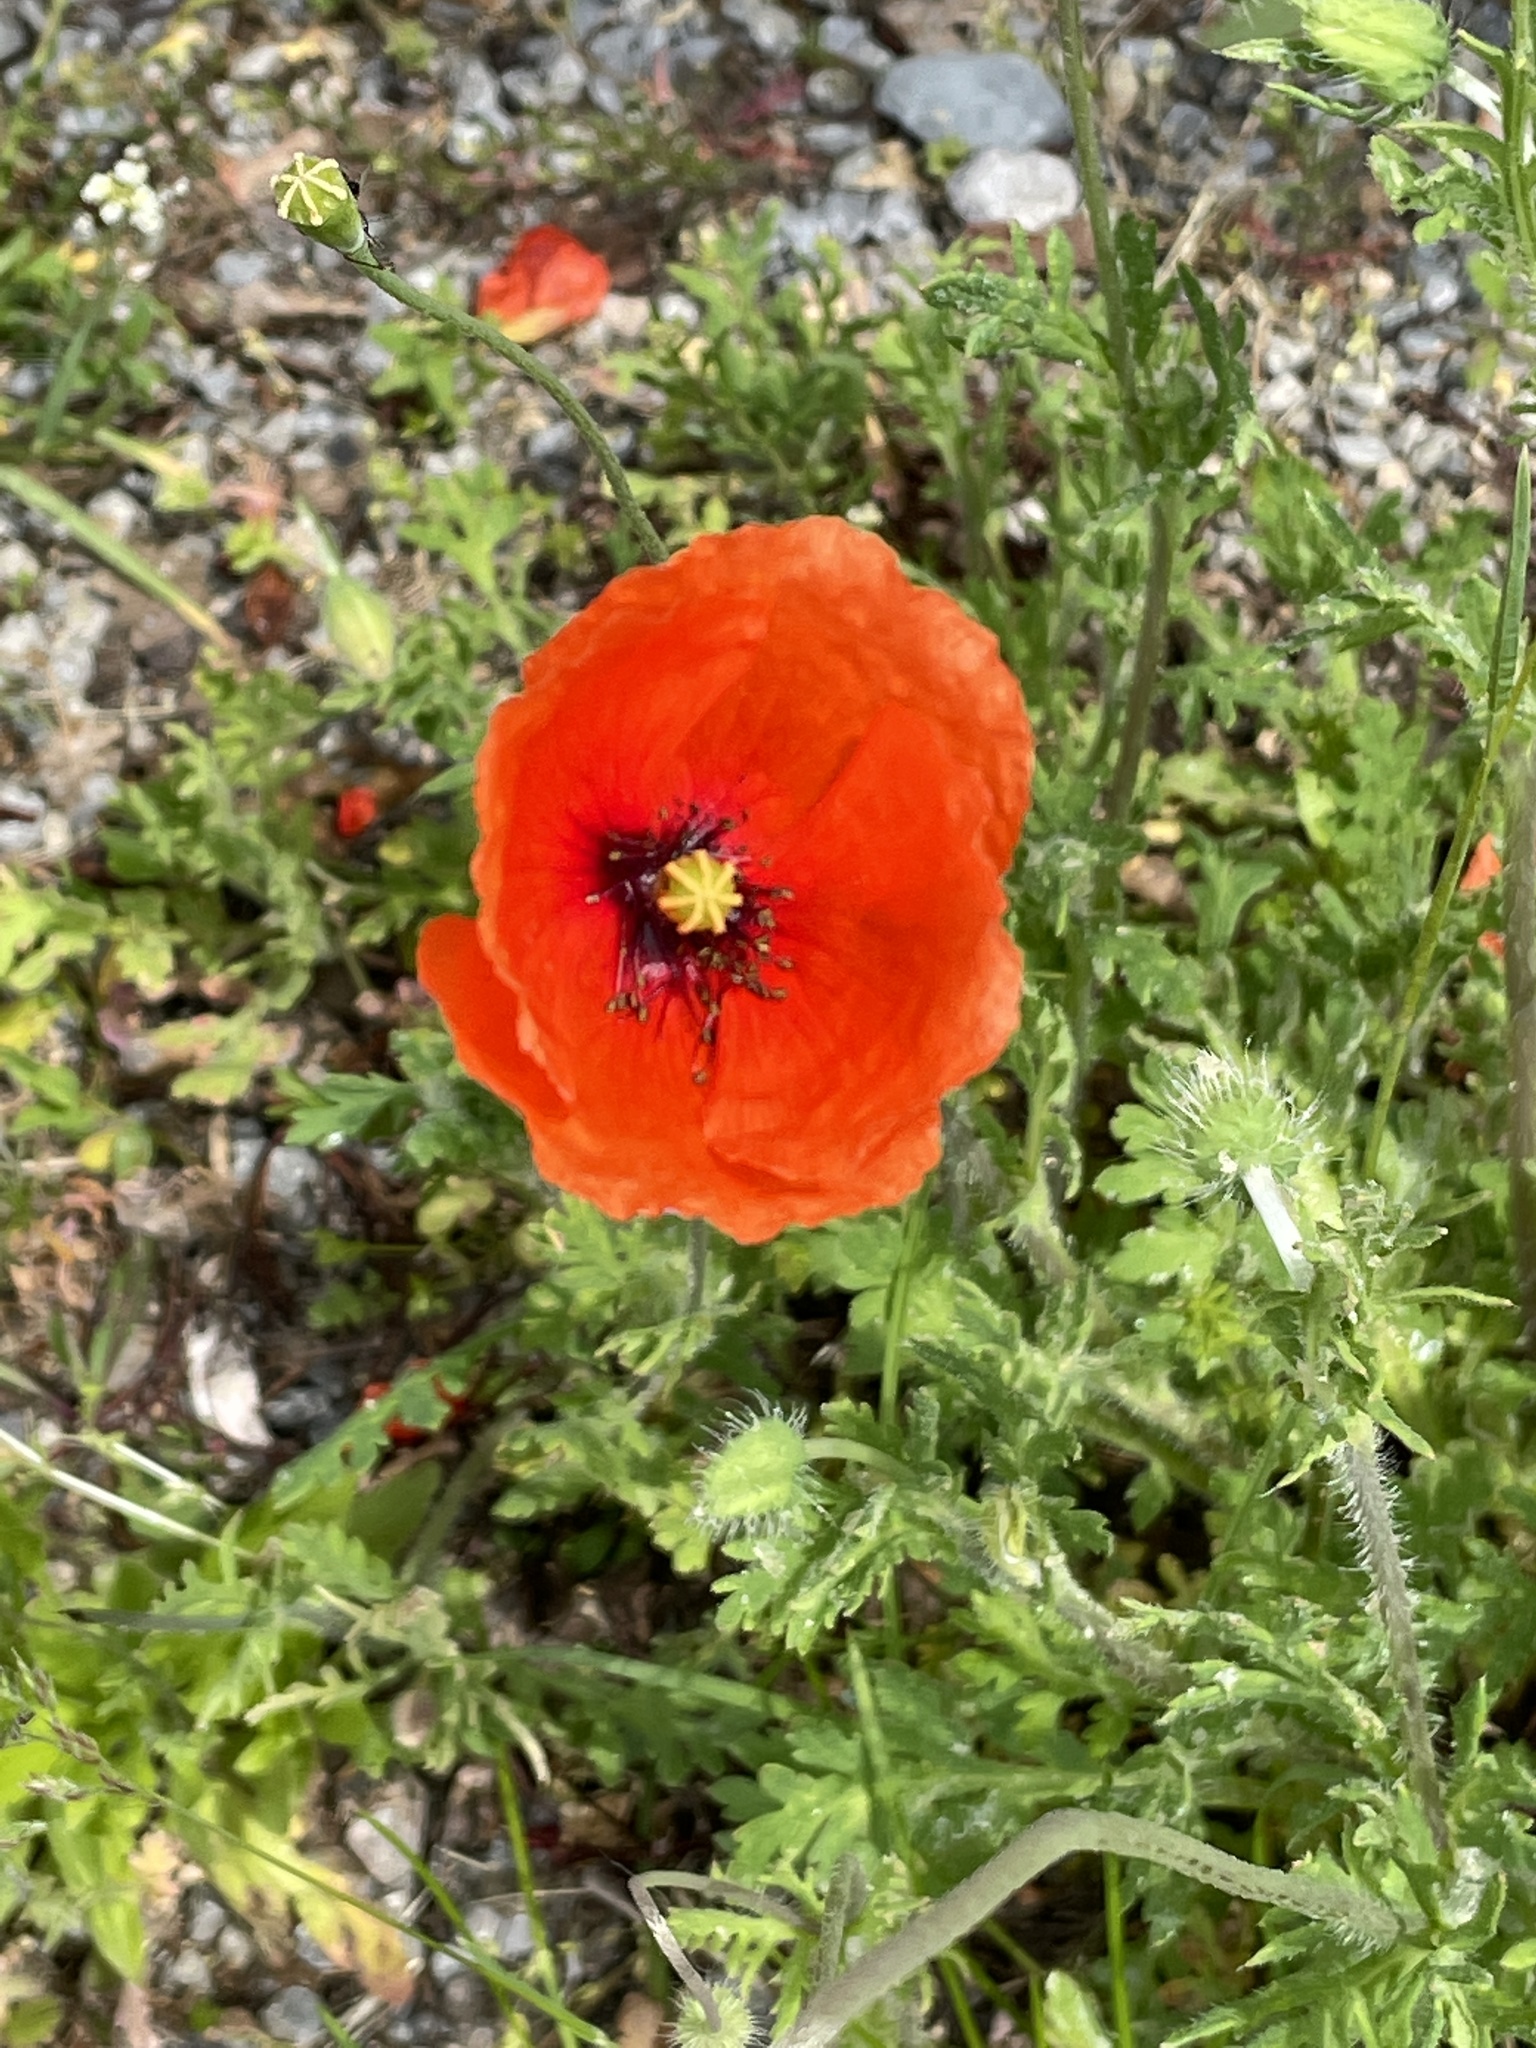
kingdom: Plantae
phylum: Tracheophyta
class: Magnoliopsida
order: Ranunculales
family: Papaveraceae
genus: Papaver
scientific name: Papaver rhoeas
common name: Corn poppy
